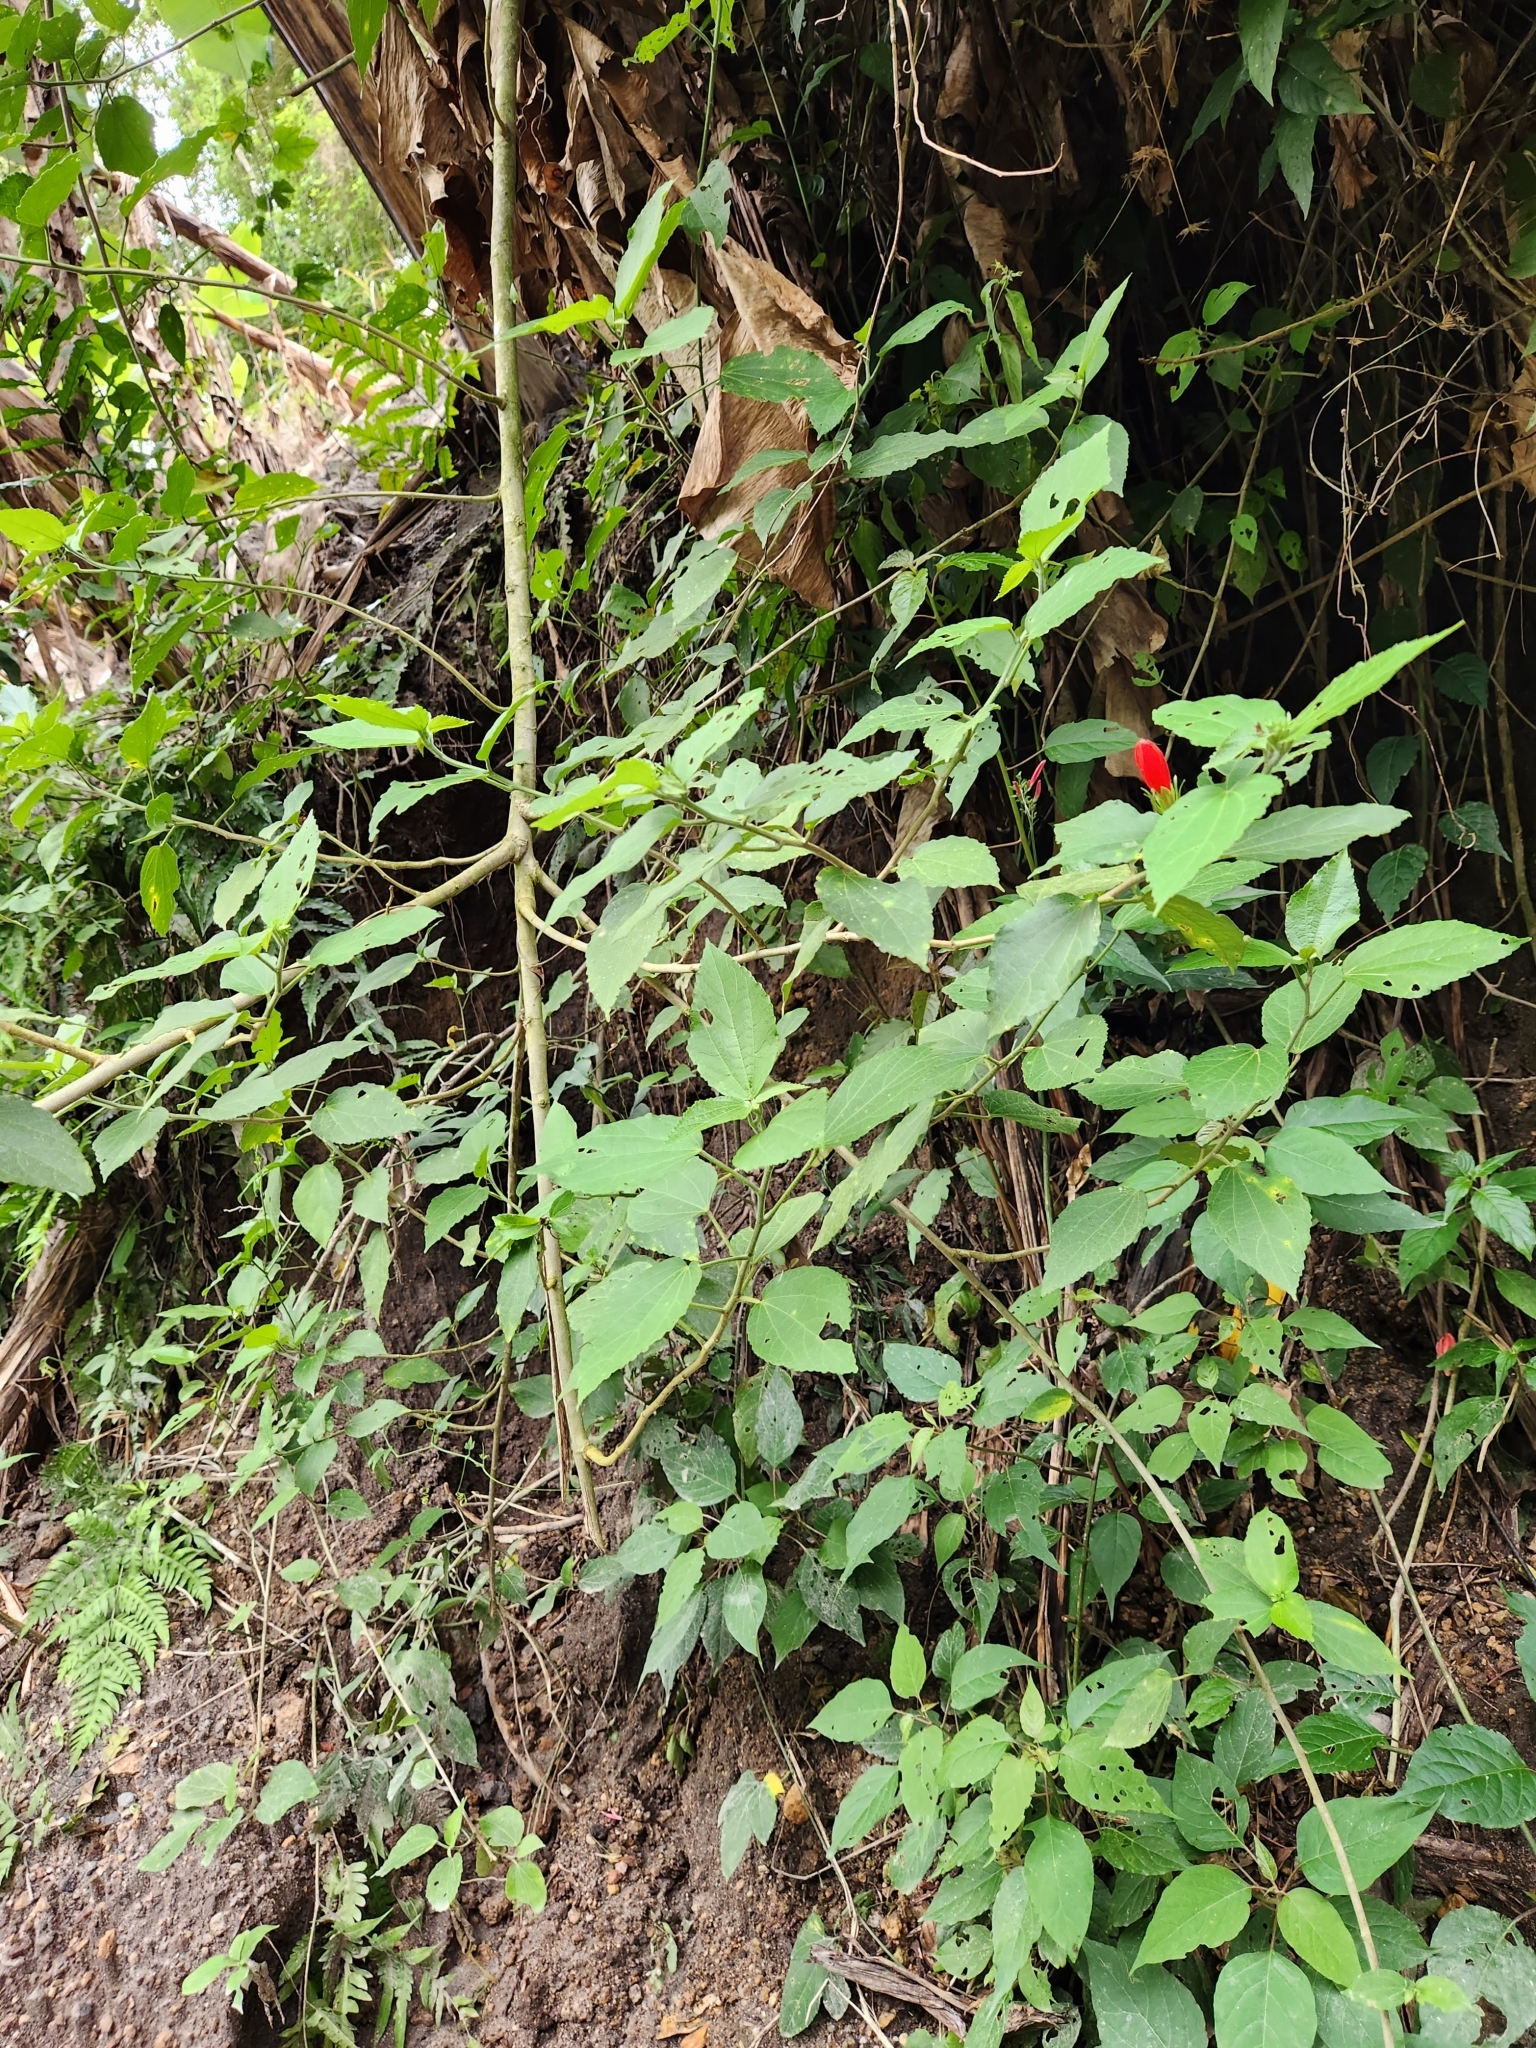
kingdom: Plantae
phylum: Tracheophyta
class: Magnoliopsida
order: Malvales
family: Malvaceae
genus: Malvaviscus
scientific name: Malvaviscus penduliflorus
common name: Mazapan
